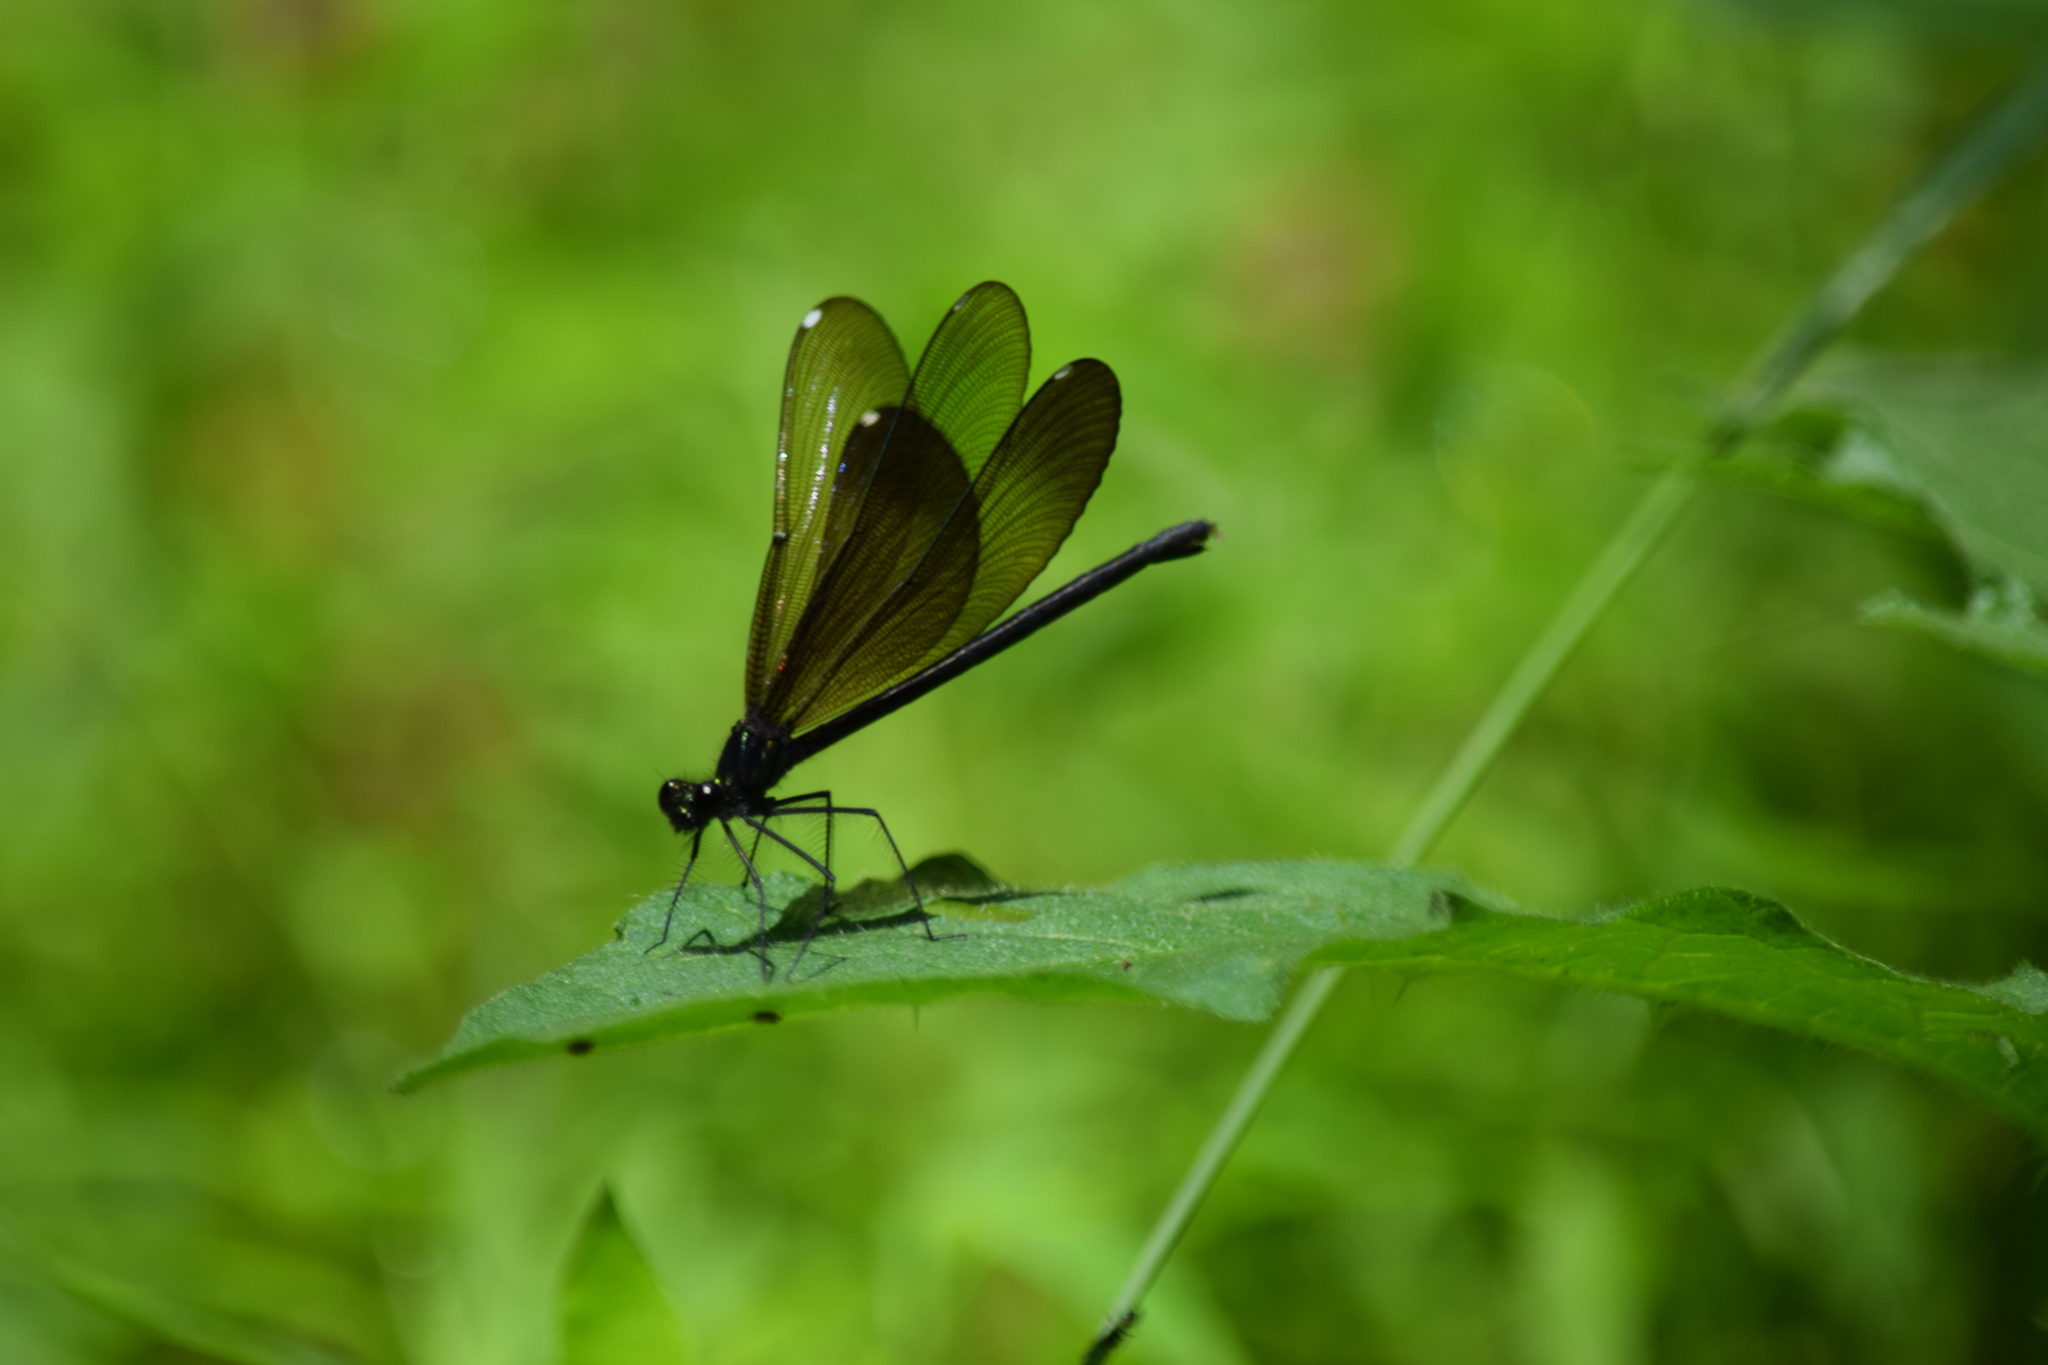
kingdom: Animalia
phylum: Arthropoda
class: Insecta
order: Odonata
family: Calopterygidae
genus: Calopteryx
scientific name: Calopteryx maculata
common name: Ebony jewelwing
